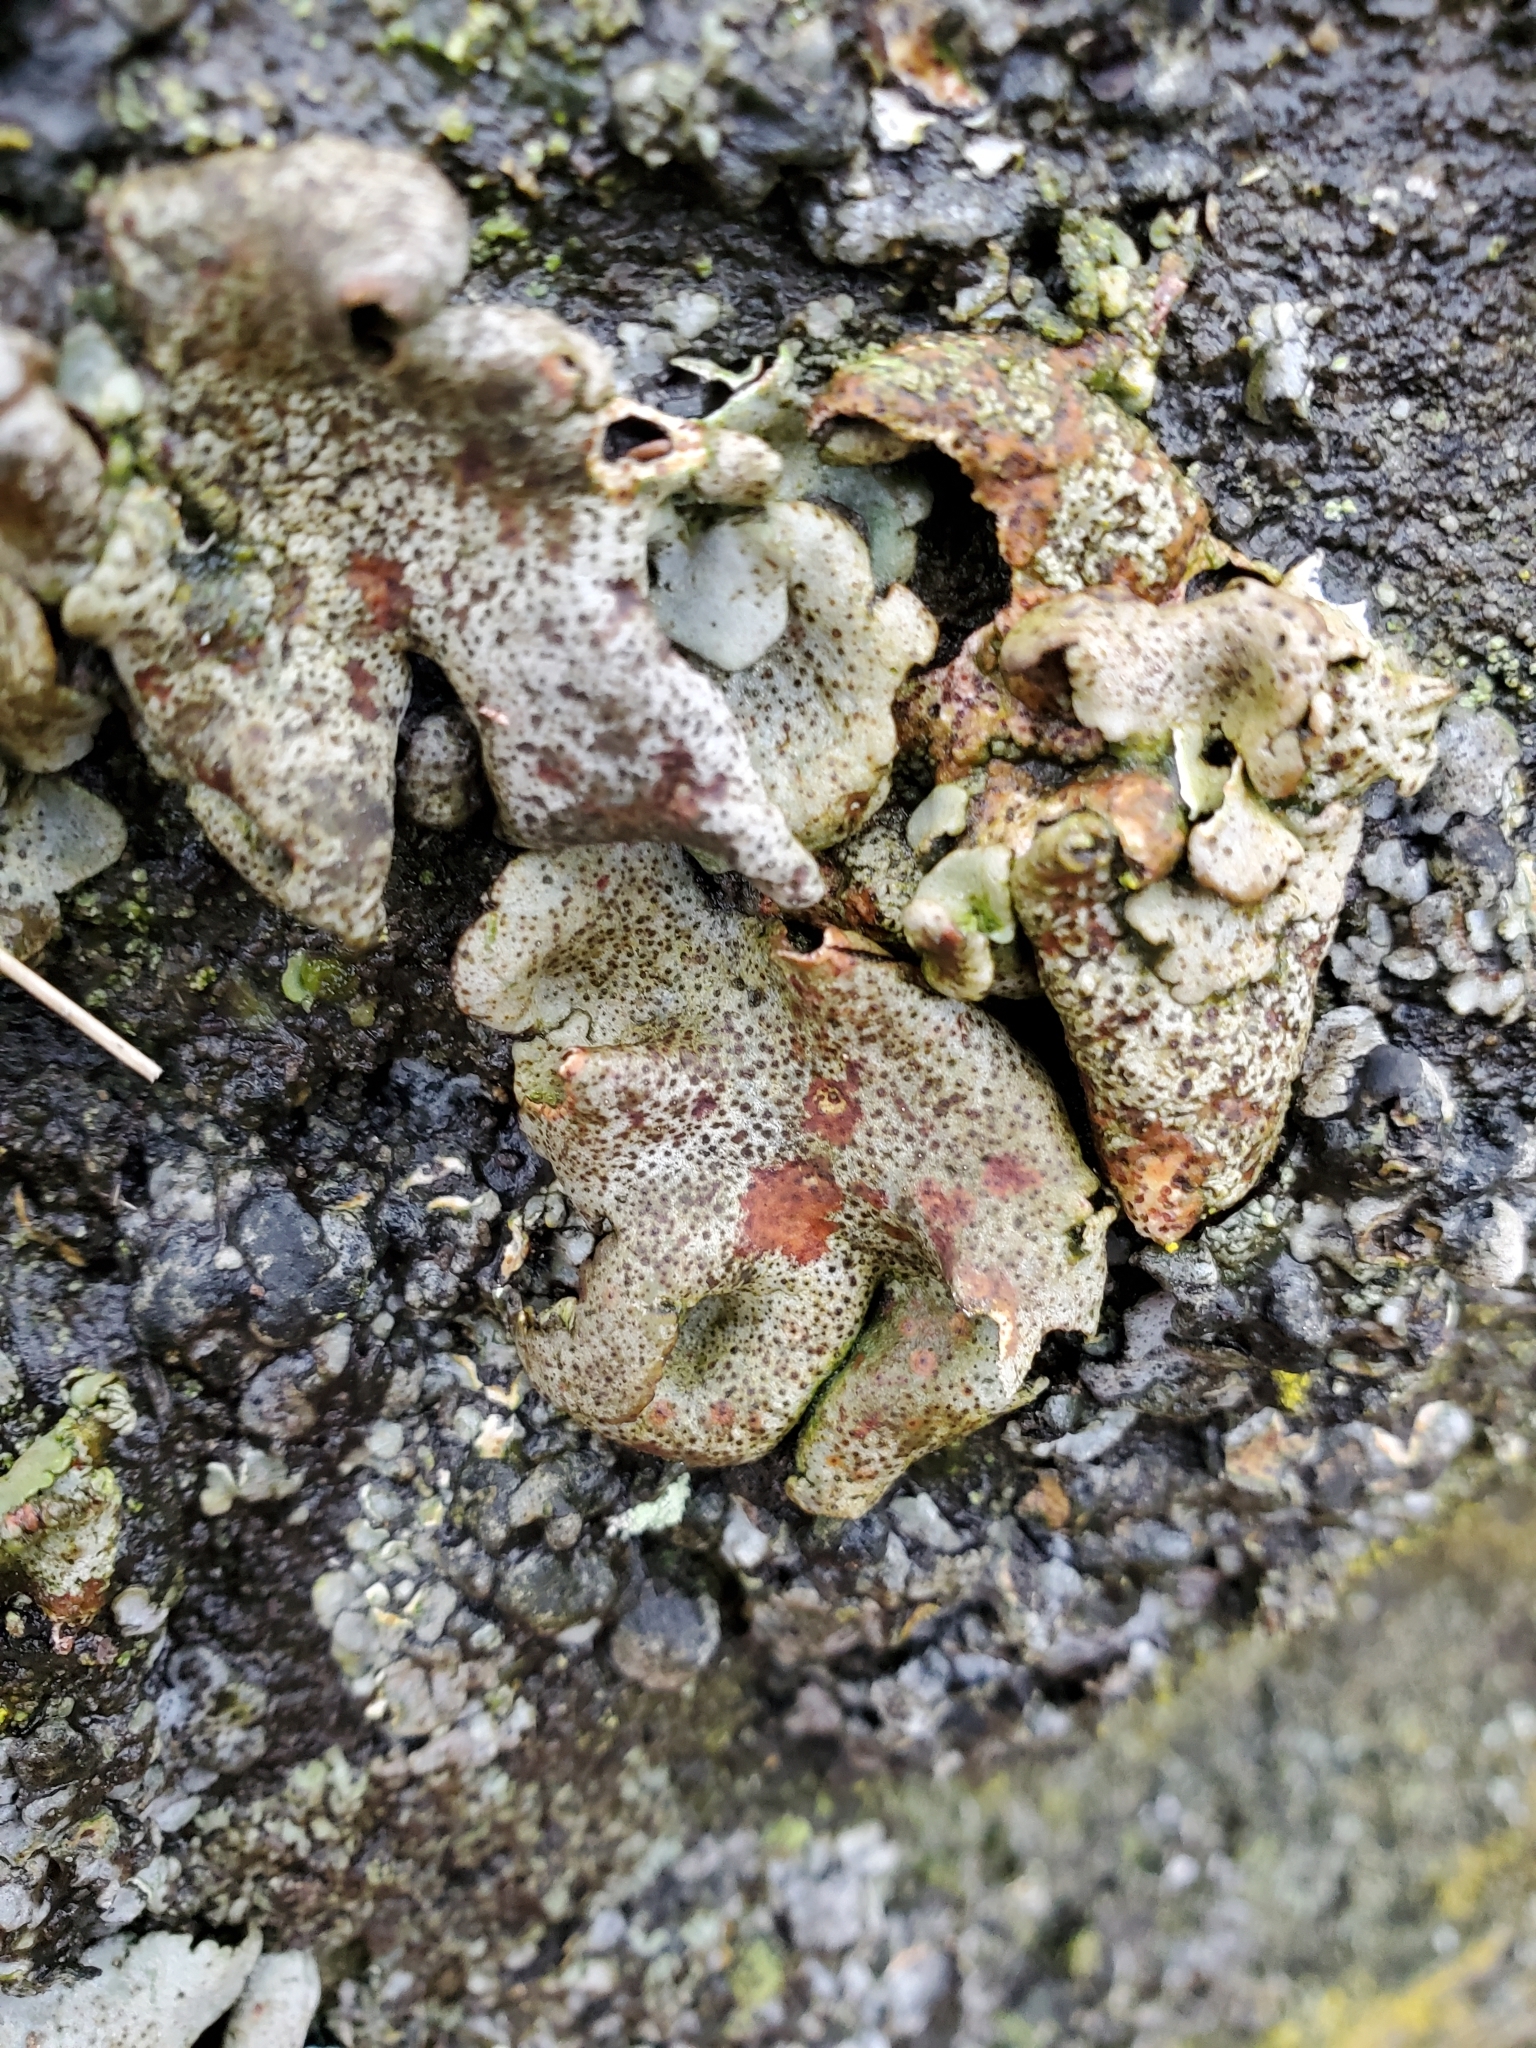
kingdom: Fungi
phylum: Ascomycota
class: Eurotiomycetes
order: Verrucariales
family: Verrucariaceae
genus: Dermatocarpon
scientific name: Dermatocarpon miniatum
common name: Leather lichen
